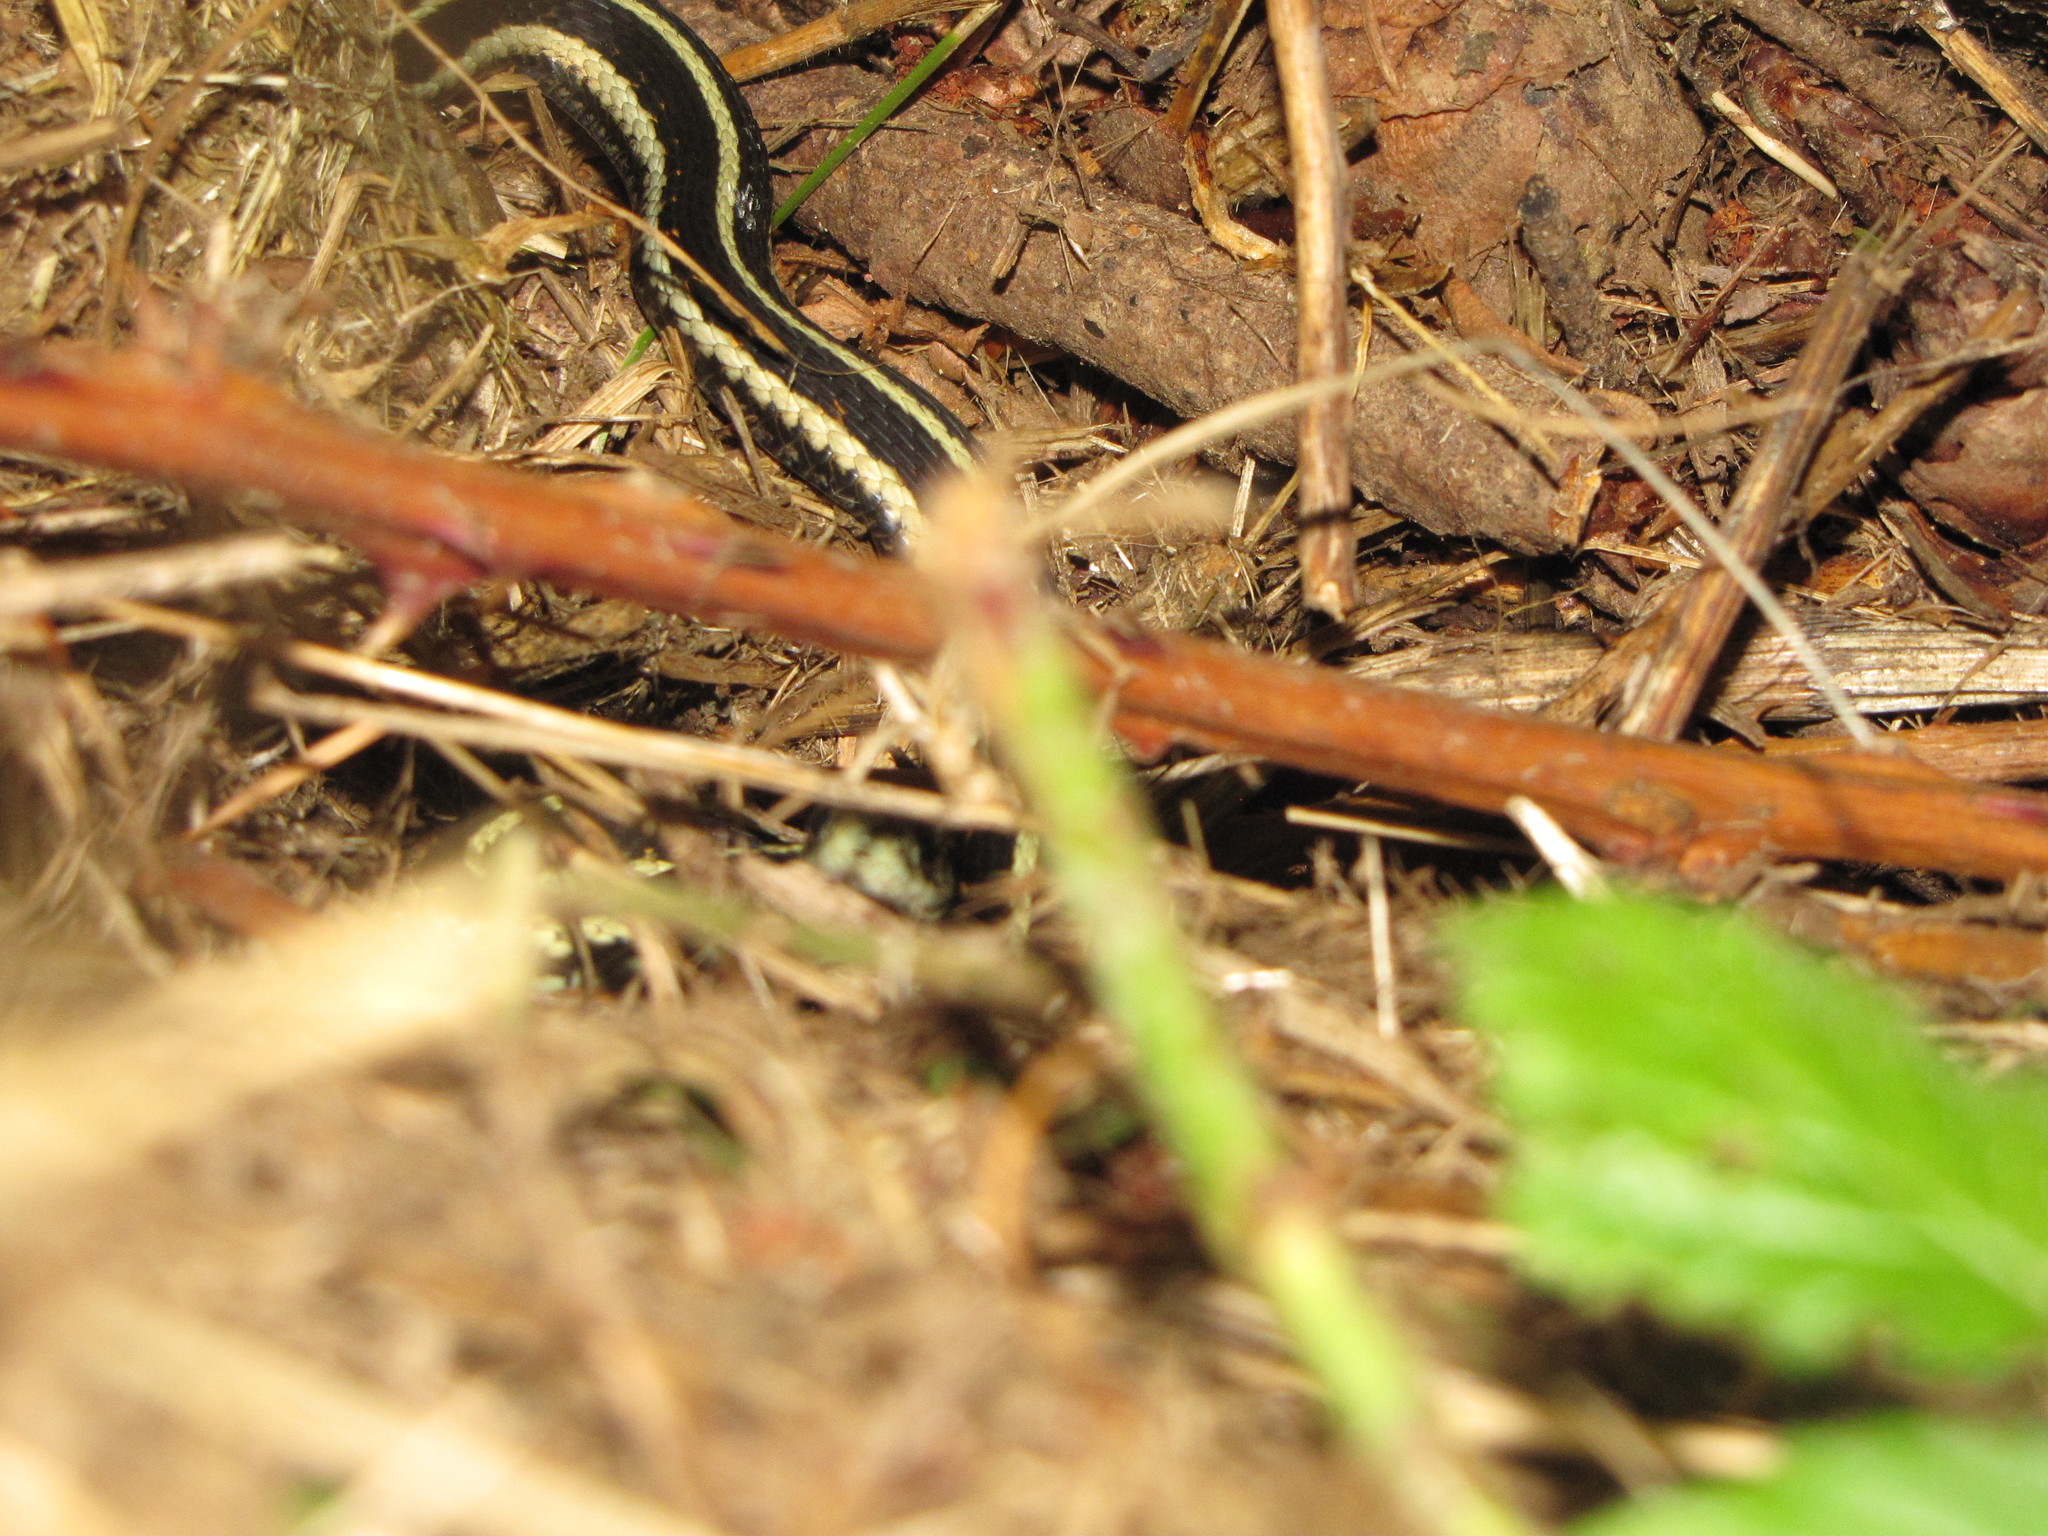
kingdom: Animalia
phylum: Chordata
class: Squamata
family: Colubridae
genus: Thamnophis
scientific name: Thamnophis sirtalis
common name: Common garter snake
